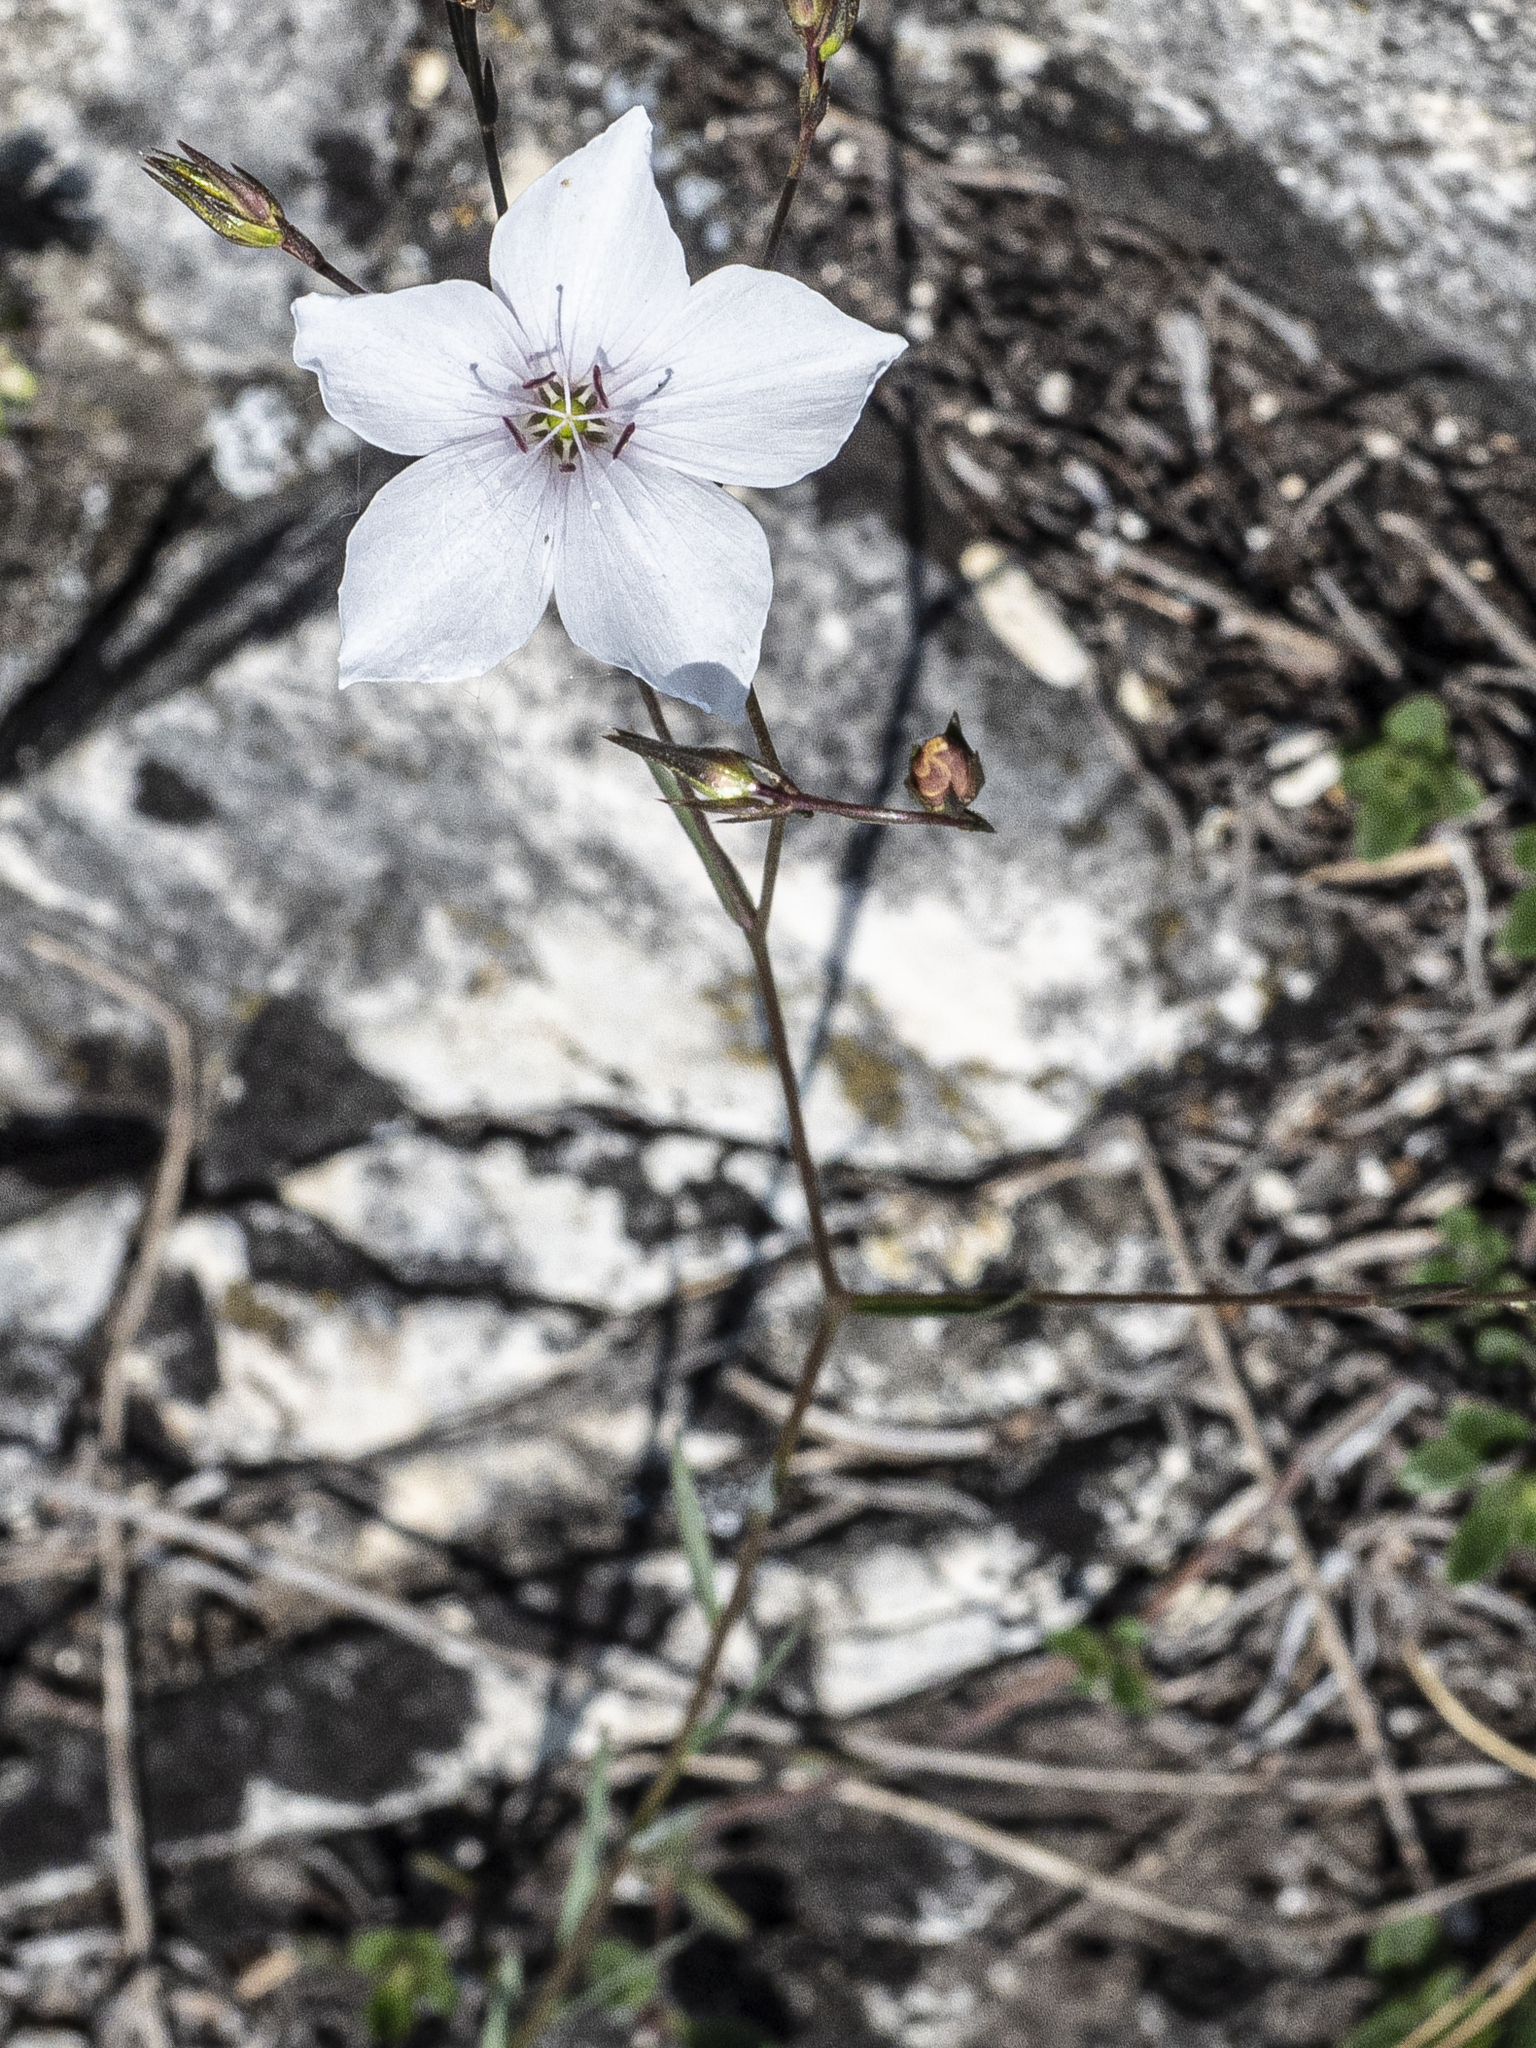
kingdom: Plantae
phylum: Tracheophyta
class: Magnoliopsida
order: Malpighiales
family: Linaceae
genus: Linum
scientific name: Linum tenuifolium
